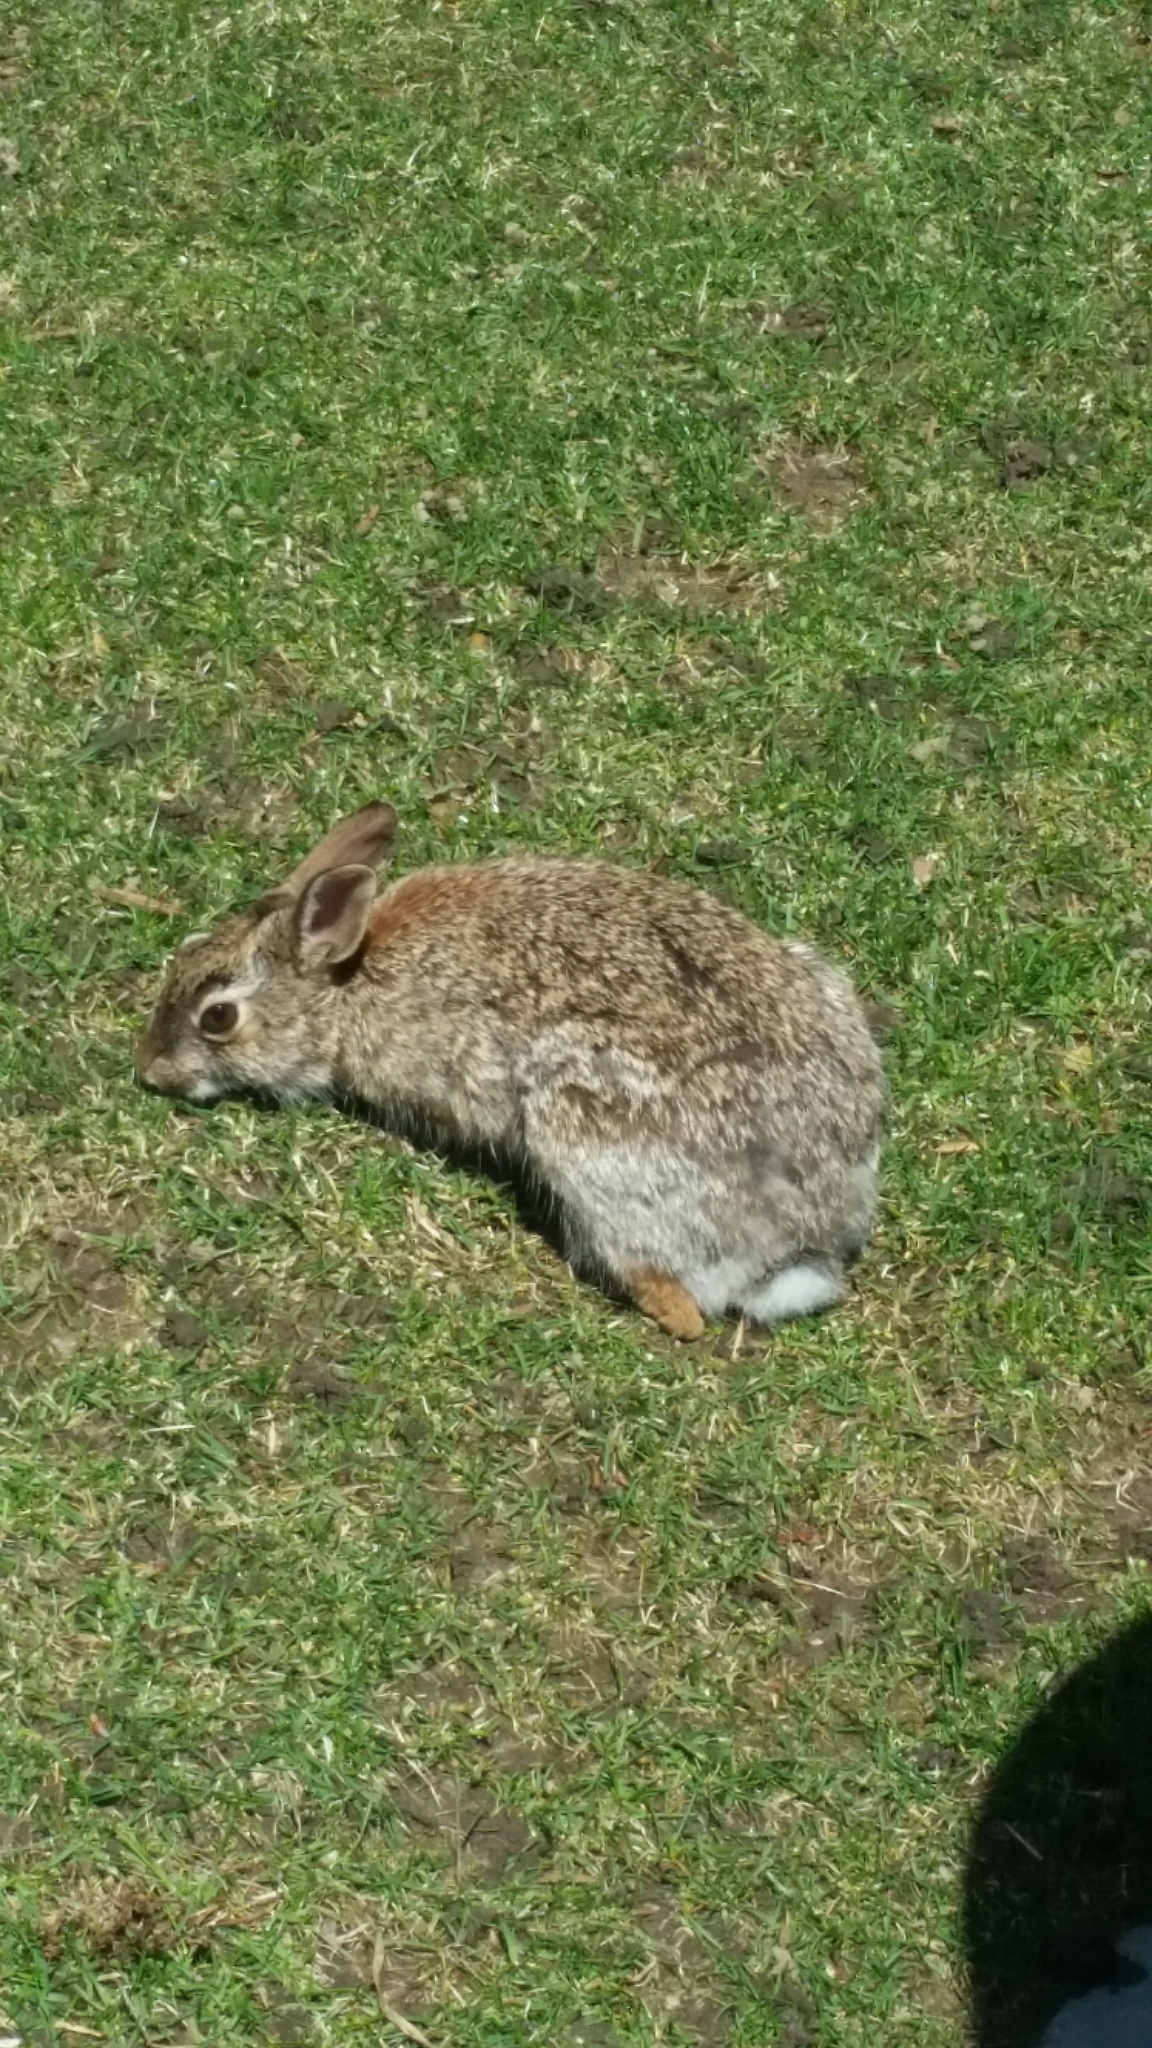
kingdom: Animalia
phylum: Chordata
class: Mammalia
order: Lagomorpha
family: Leporidae
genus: Sylvilagus
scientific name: Sylvilagus floridanus
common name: Eastern cottontail
